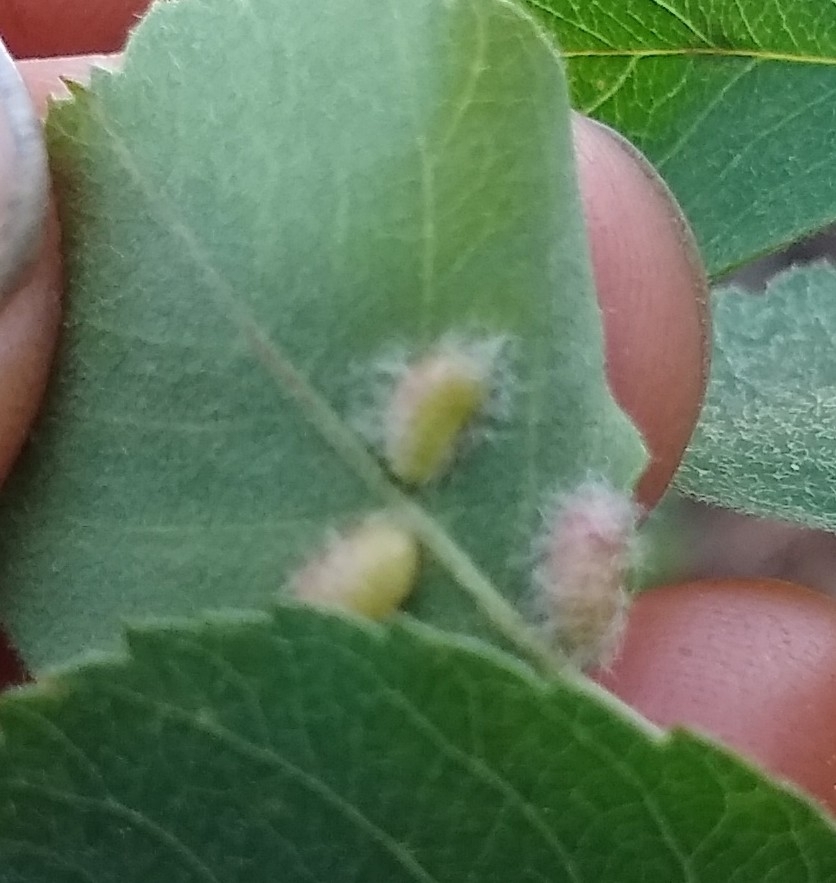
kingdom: Animalia
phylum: Arthropoda
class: Insecta
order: Diptera
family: Cecidomyiidae
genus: Blaesodiplosis
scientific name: Blaesodiplosis
